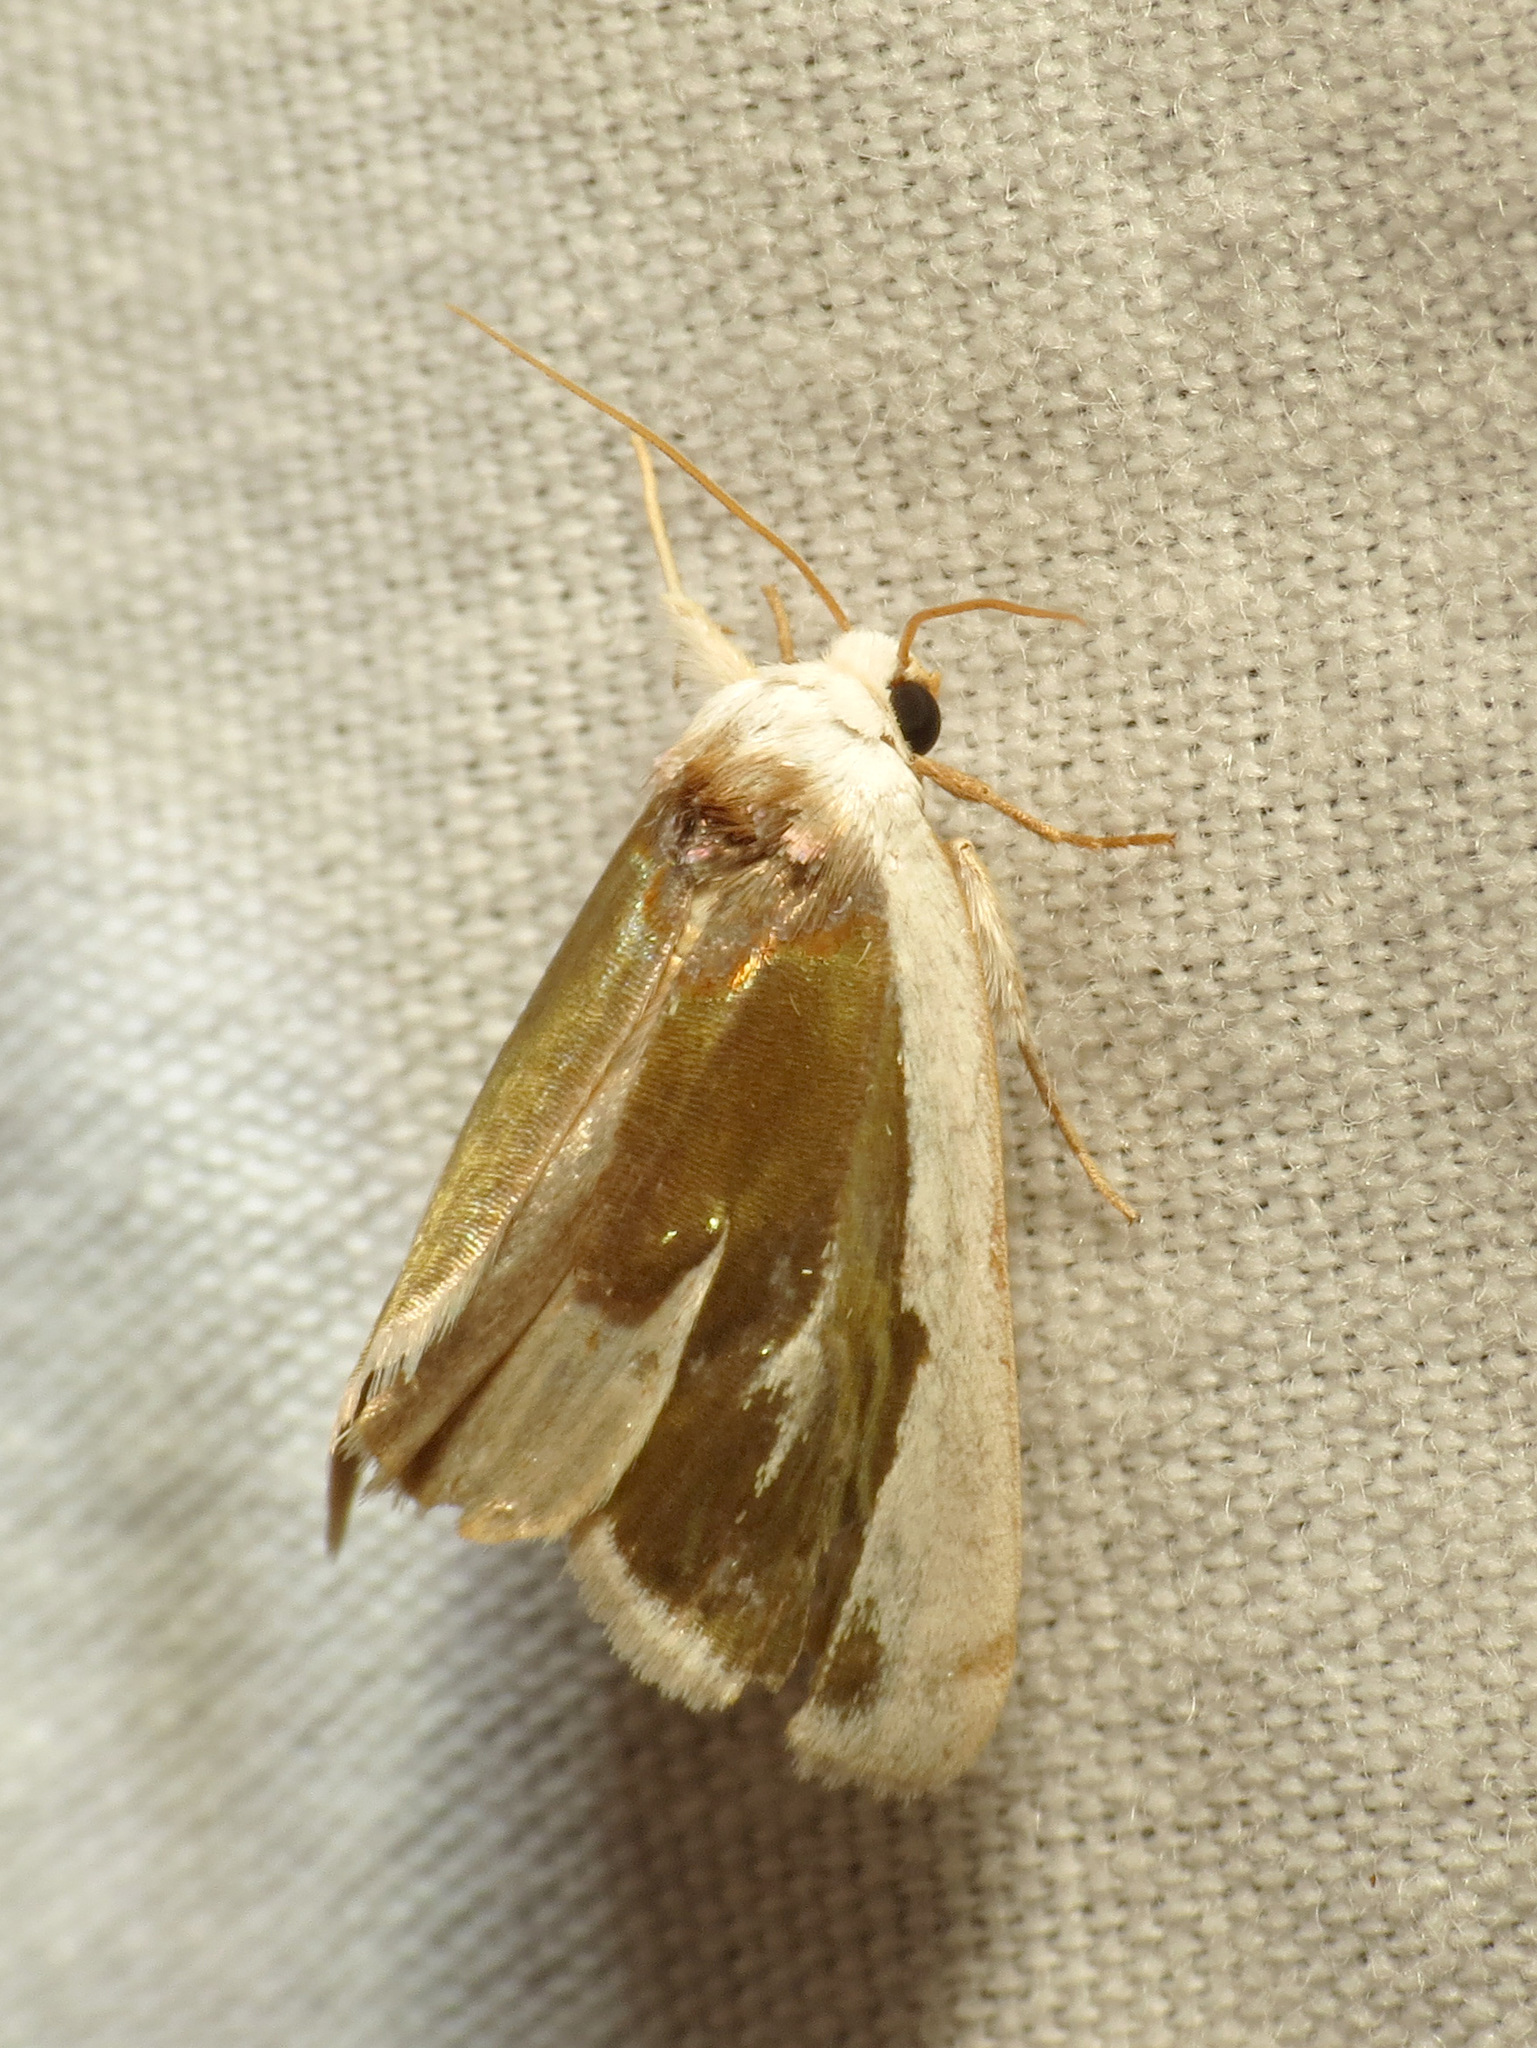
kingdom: Animalia
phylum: Arthropoda
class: Insecta
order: Lepidoptera
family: Noctuidae
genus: Neumoegenia
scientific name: Neumoegenia poetica
